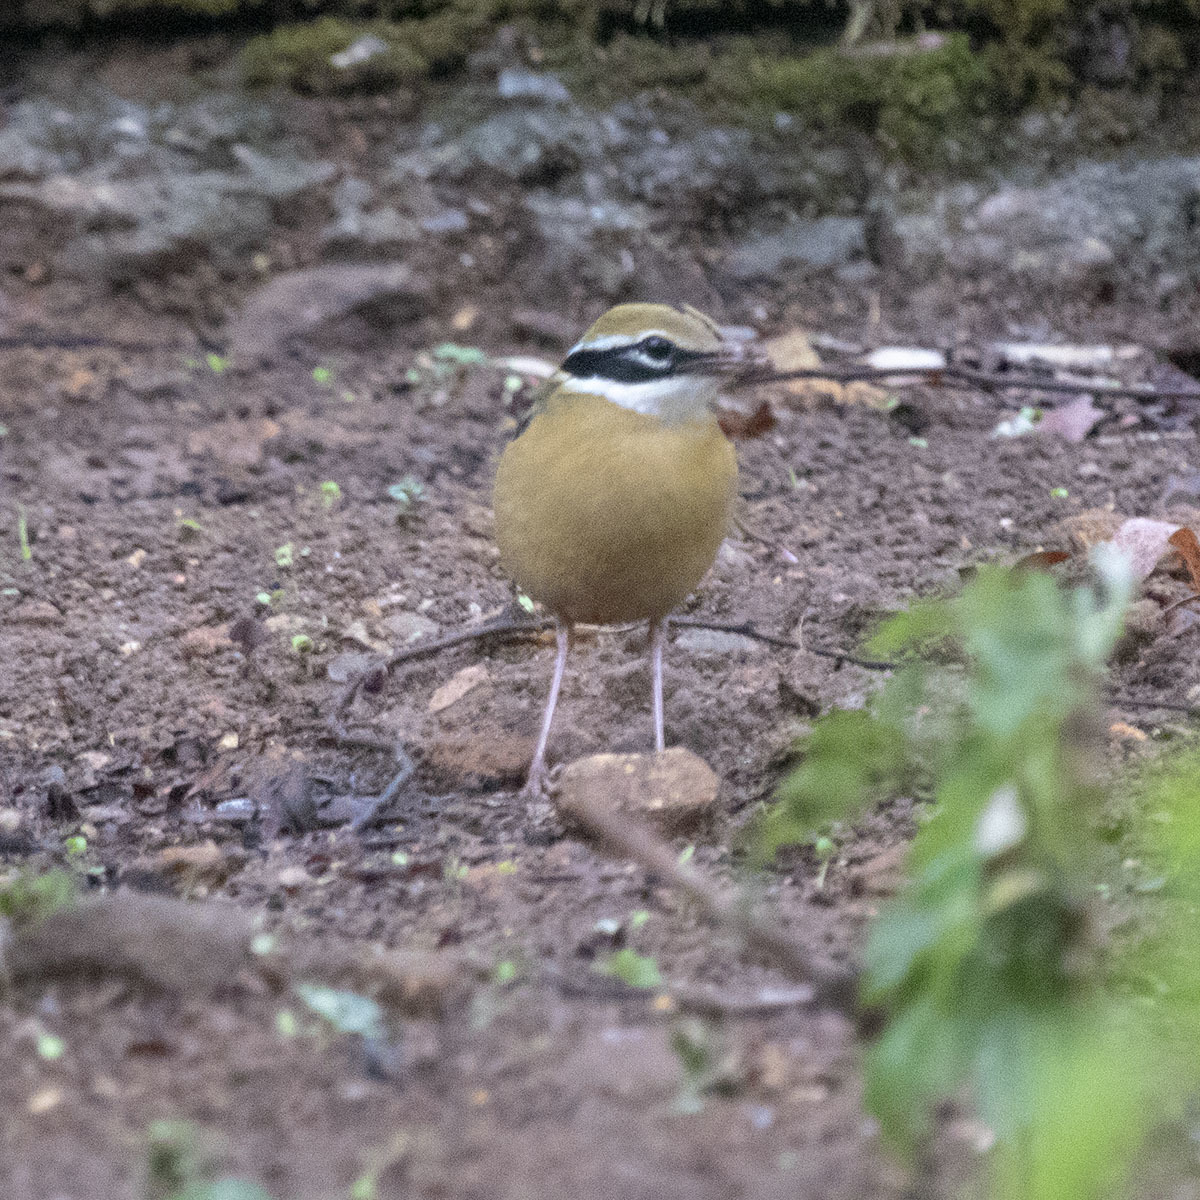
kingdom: Animalia
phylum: Chordata
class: Aves
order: Passeriformes
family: Pittidae
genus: Pitta
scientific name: Pitta brachyura
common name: Indian pitta
